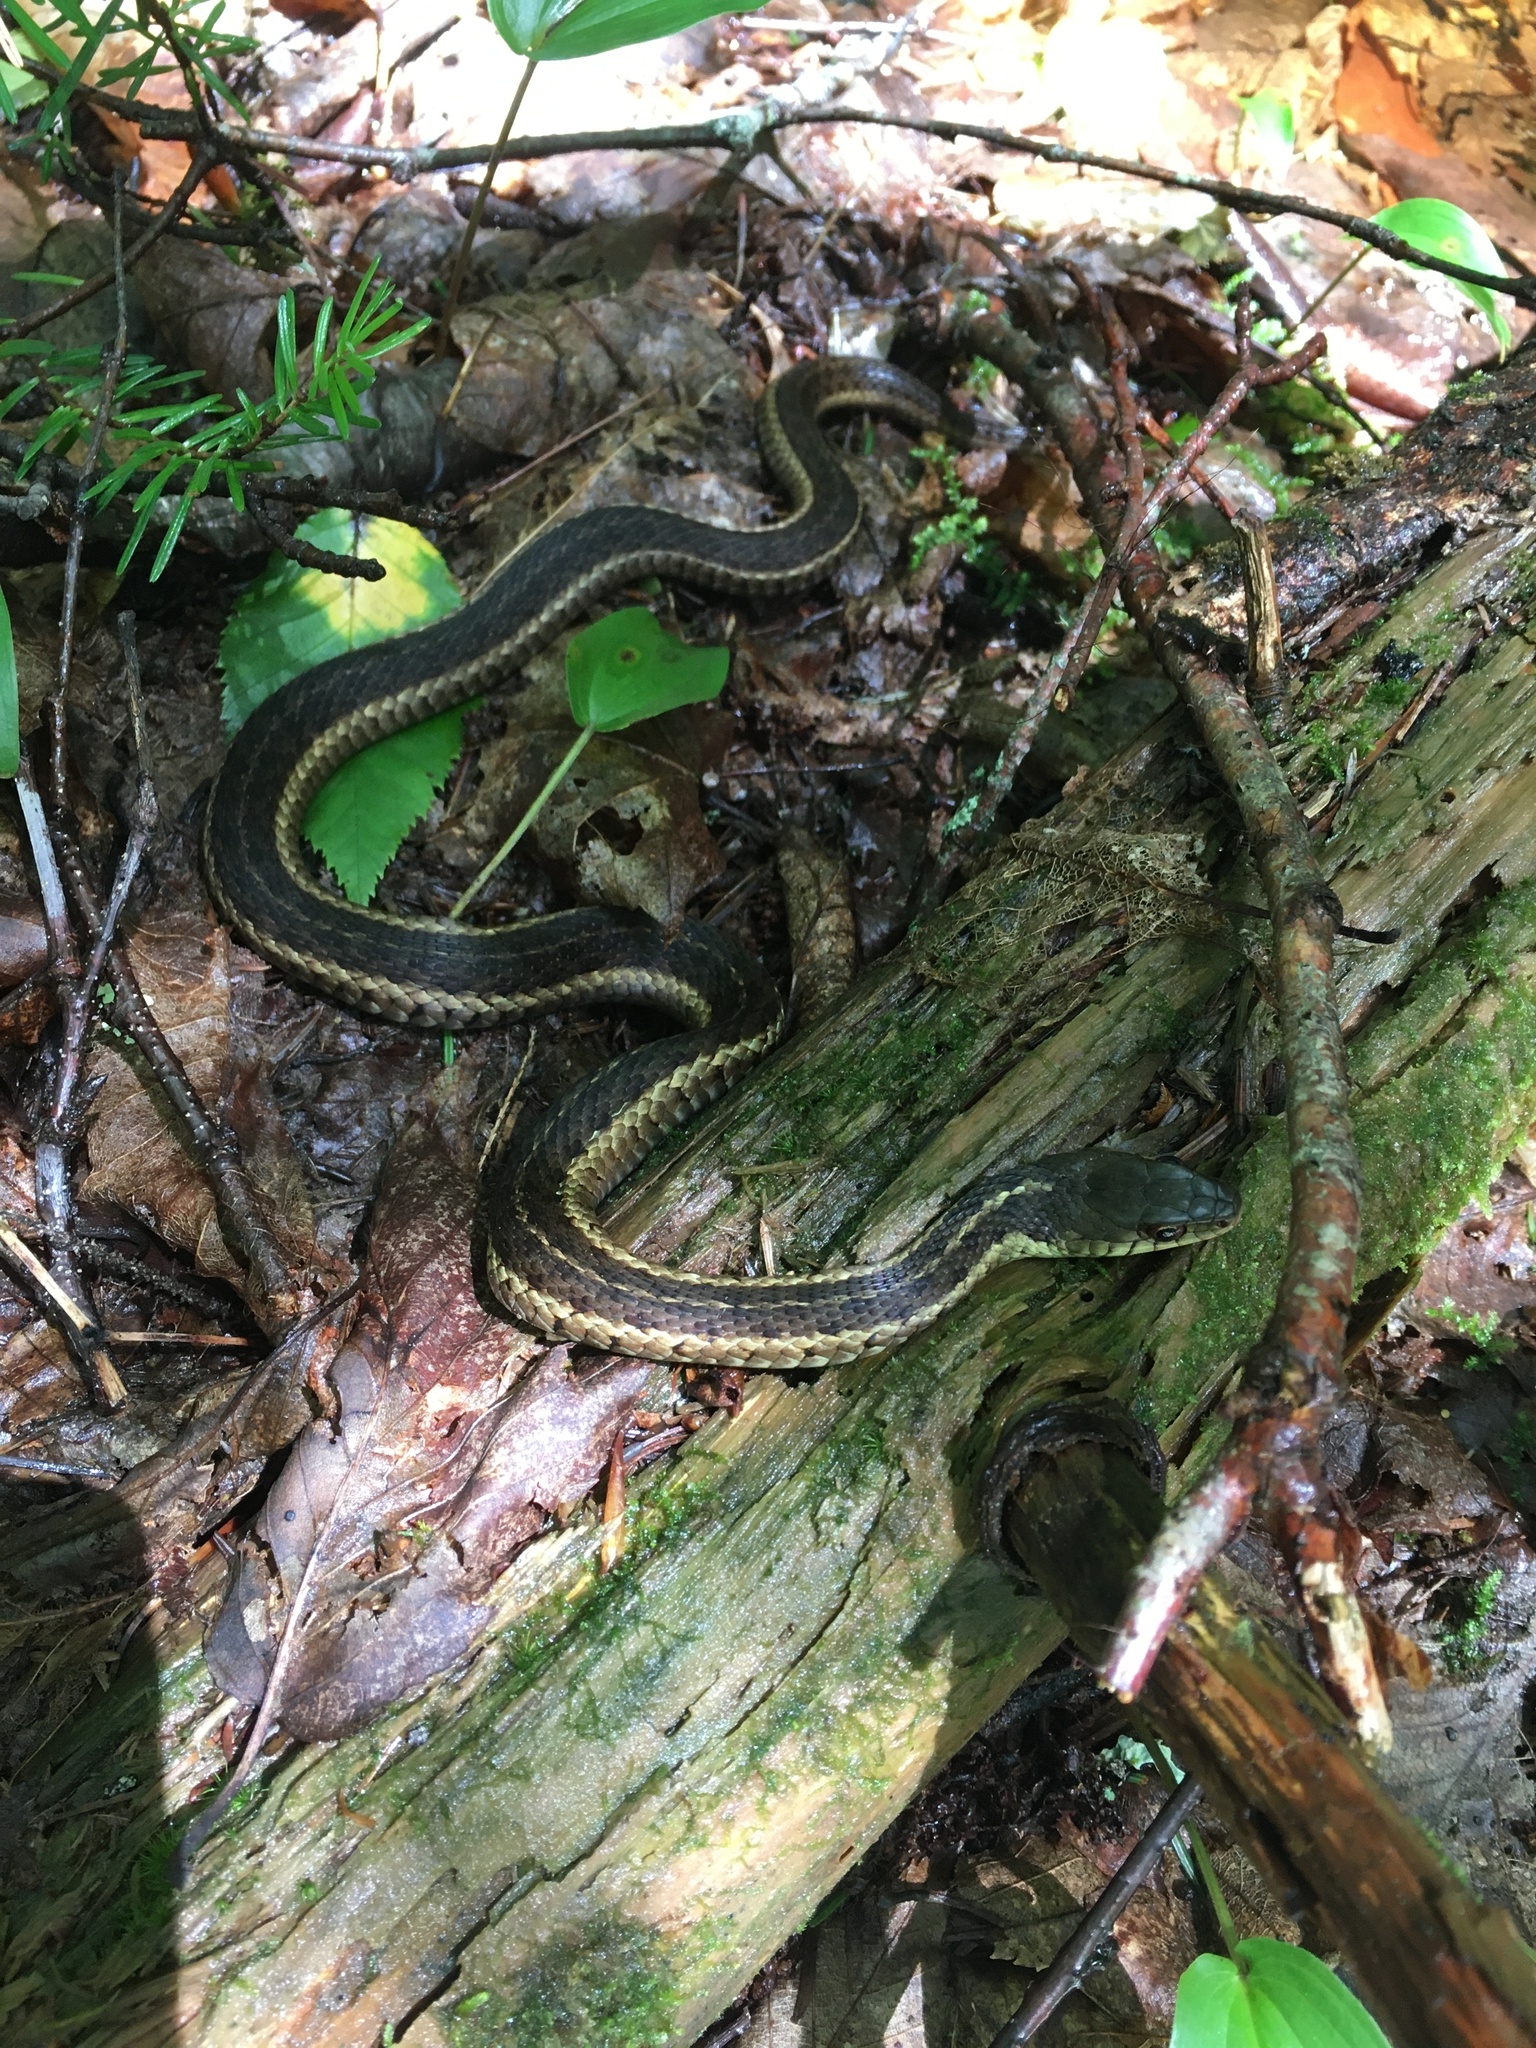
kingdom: Animalia
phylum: Chordata
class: Squamata
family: Colubridae
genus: Thamnophis
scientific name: Thamnophis sirtalis
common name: Common garter snake
